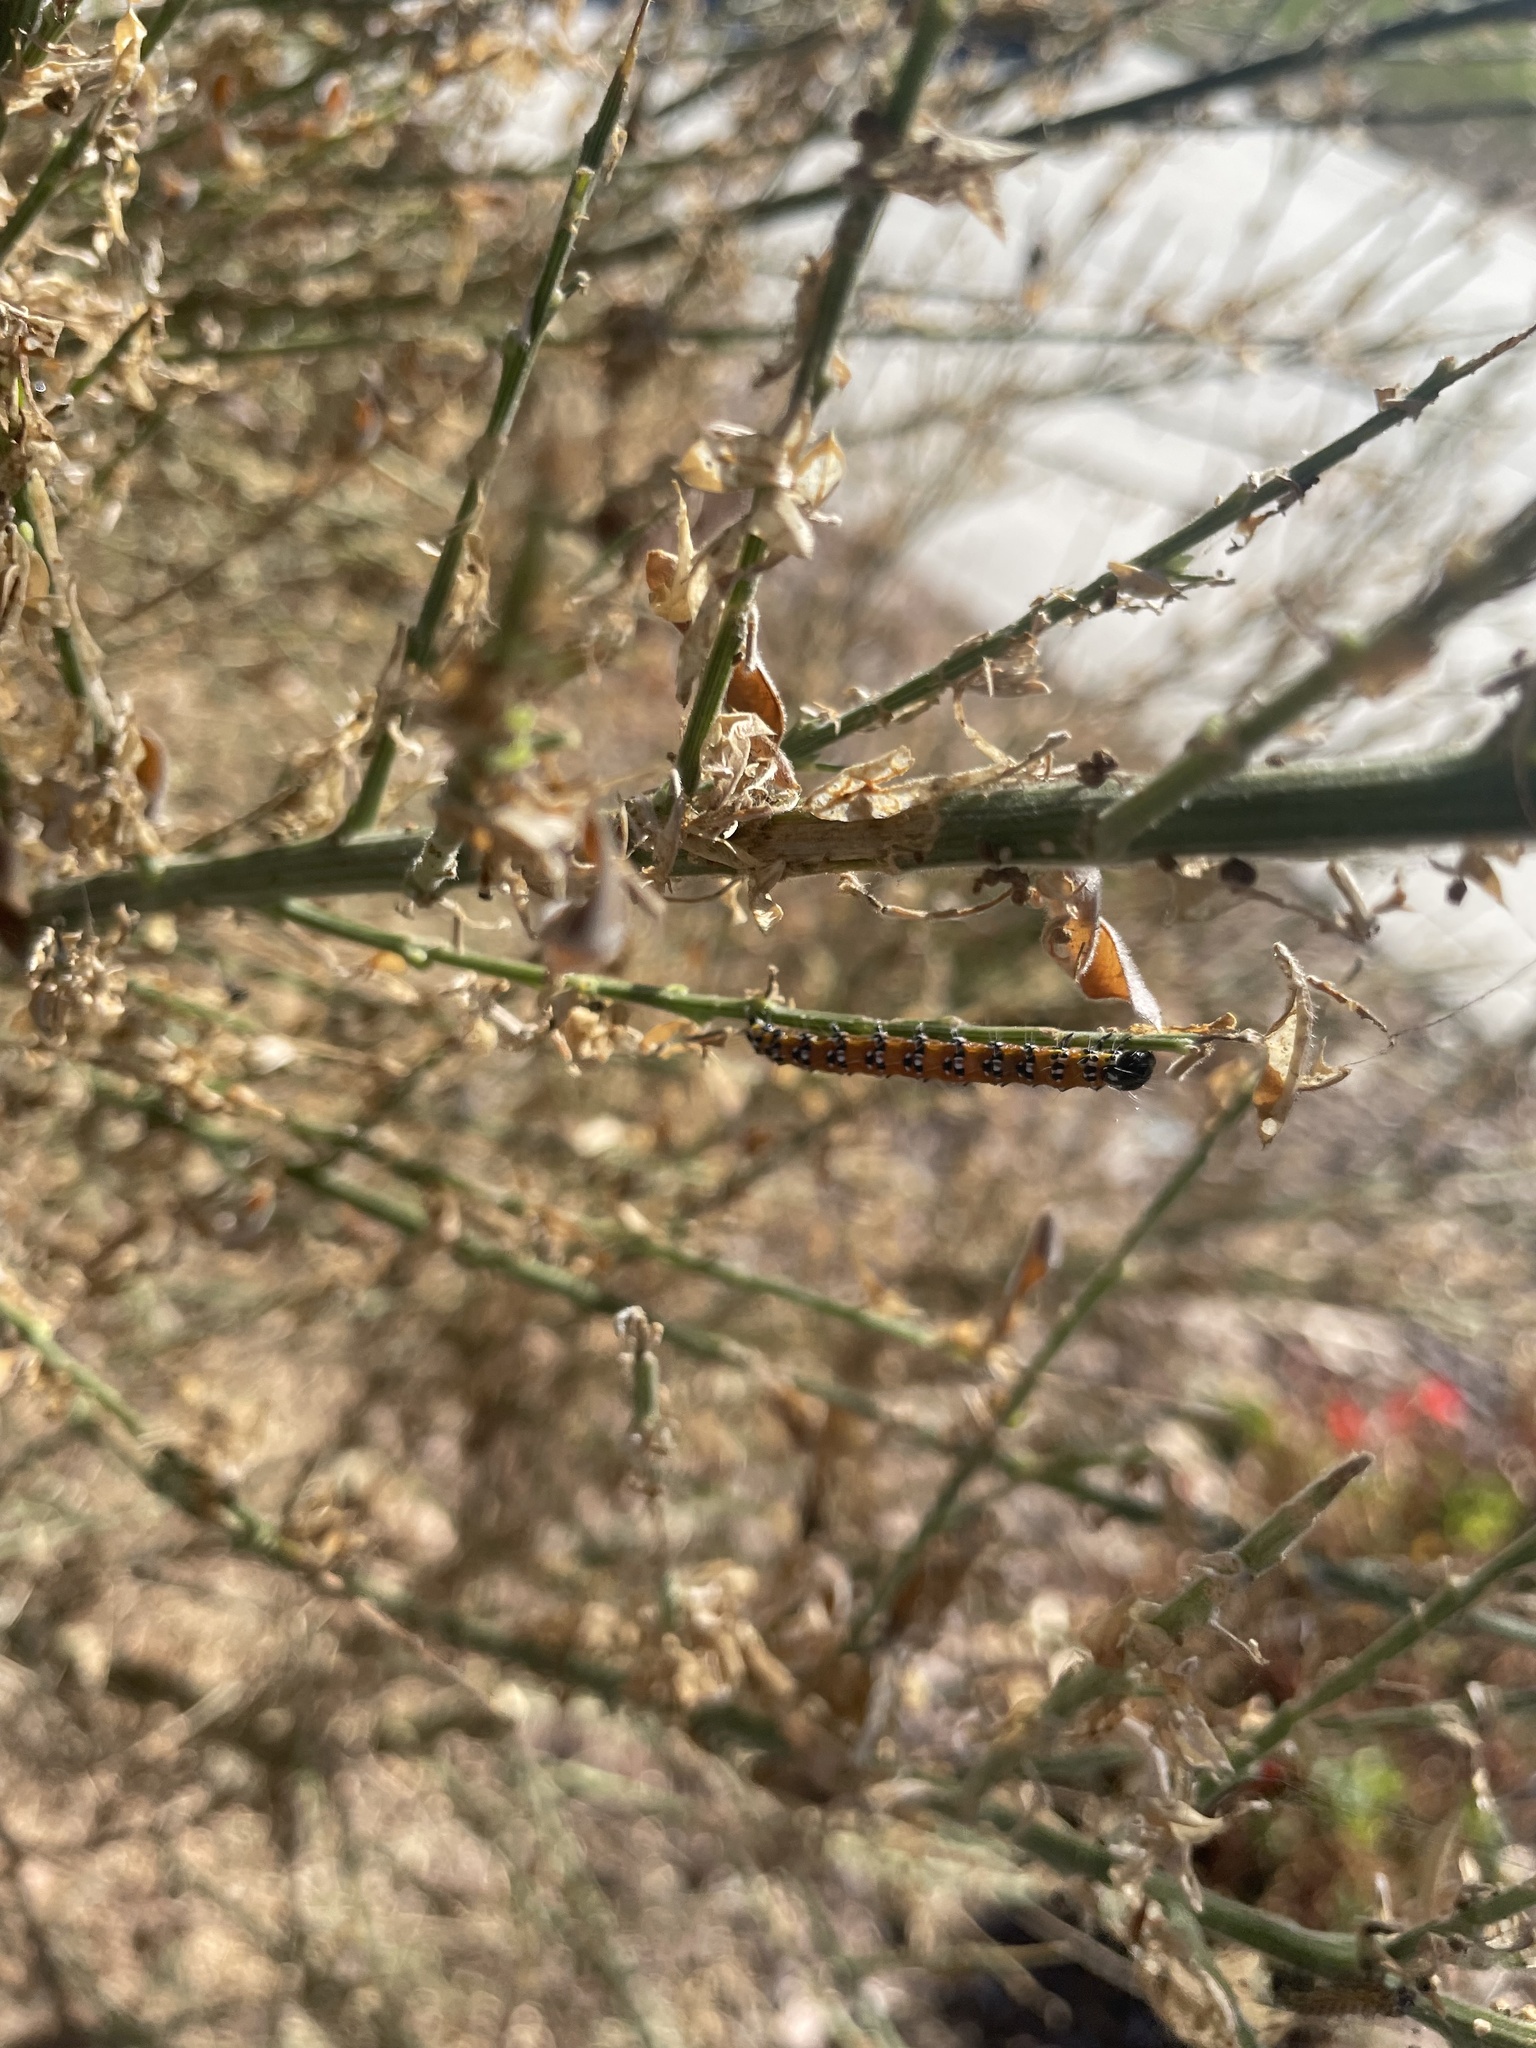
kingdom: Animalia
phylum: Arthropoda
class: Insecta
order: Lepidoptera
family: Crambidae
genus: Uresiphita
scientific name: Uresiphita reversalis
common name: Genista broom moth
